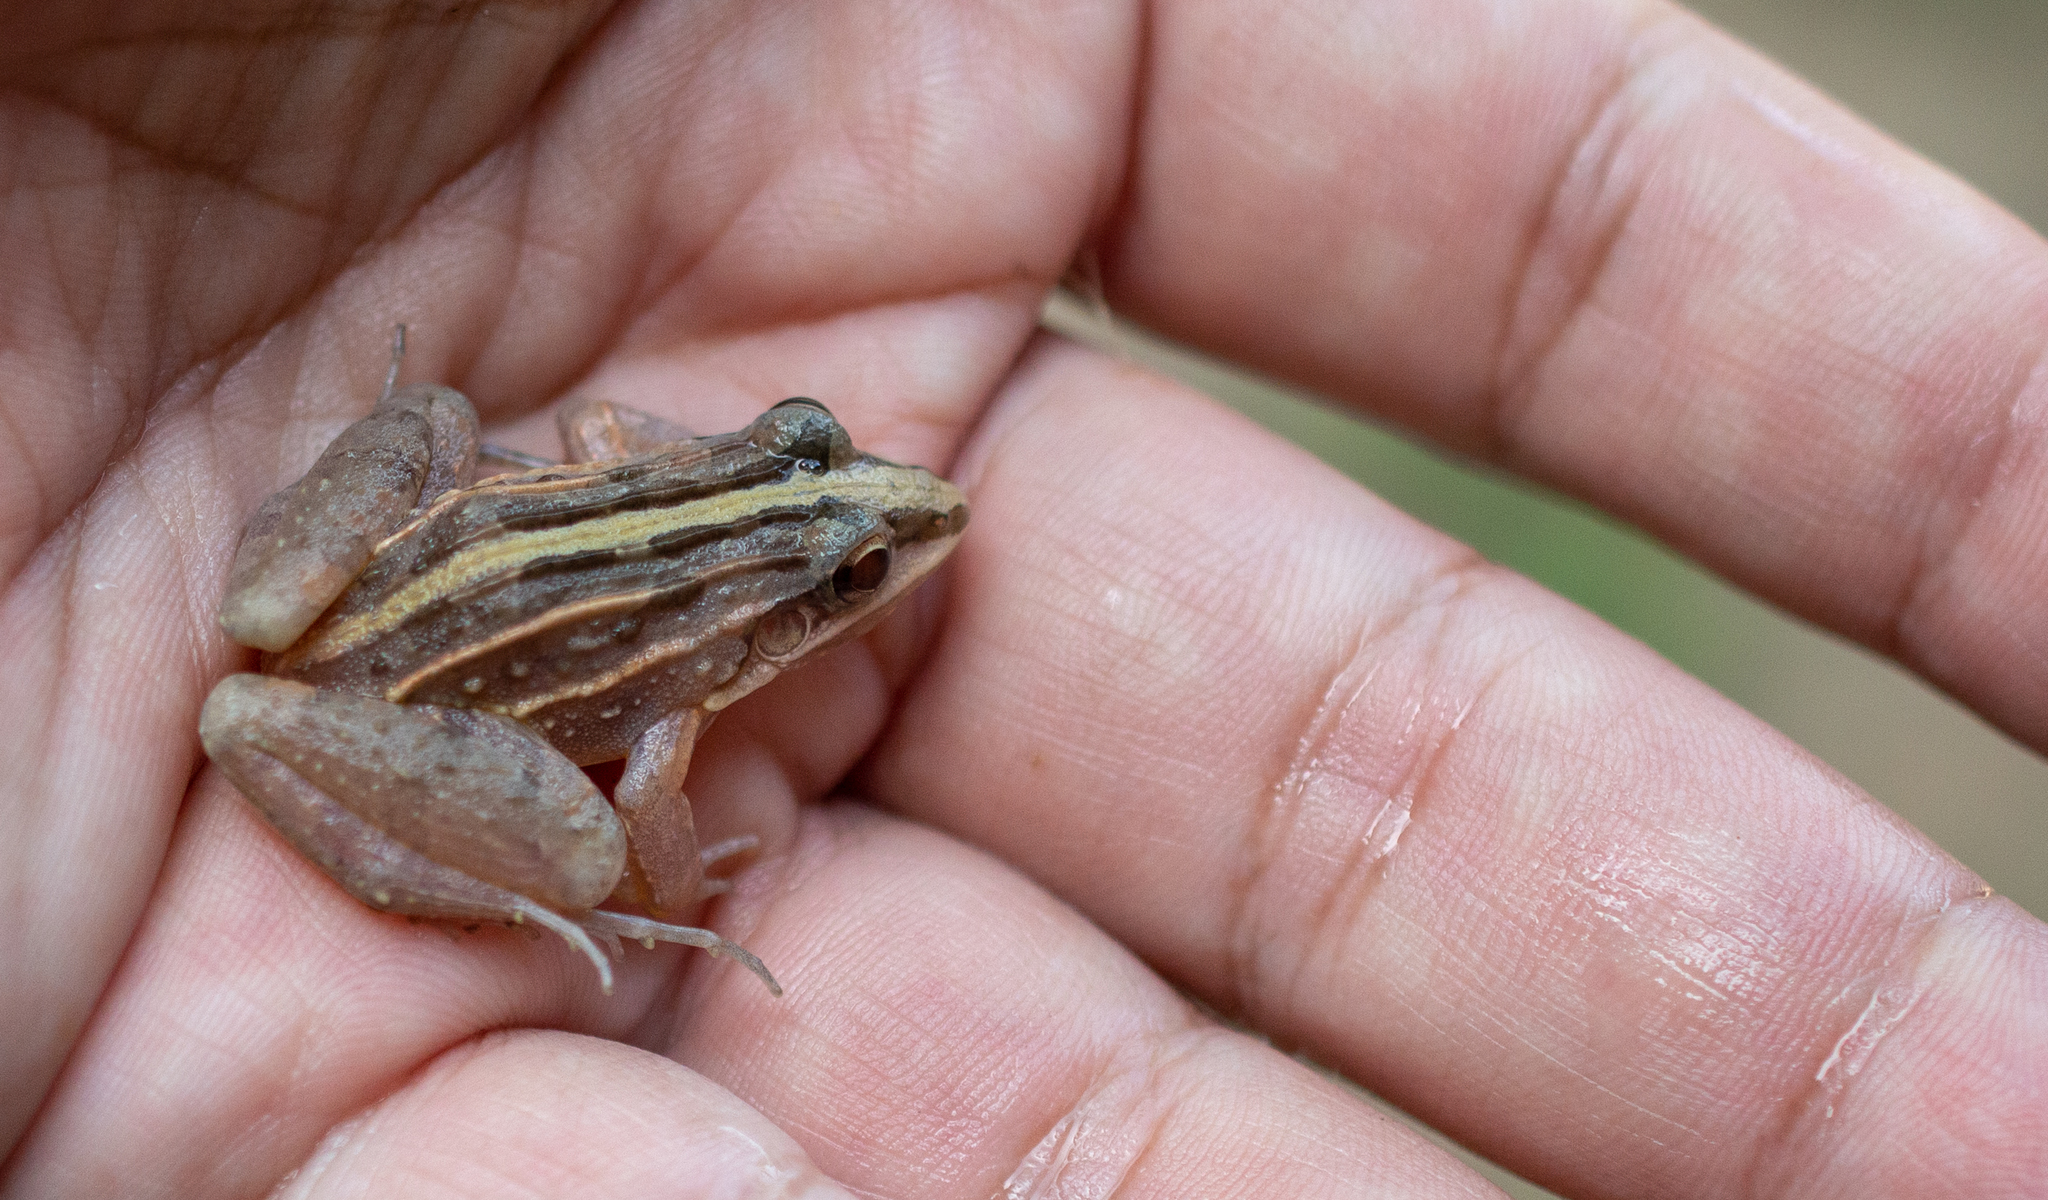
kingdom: Animalia
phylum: Chordata
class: Amphibia
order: Anura
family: Leptodactylidae
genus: Leptodactylus
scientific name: Leptodactylus fuscus
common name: Rufous frog
